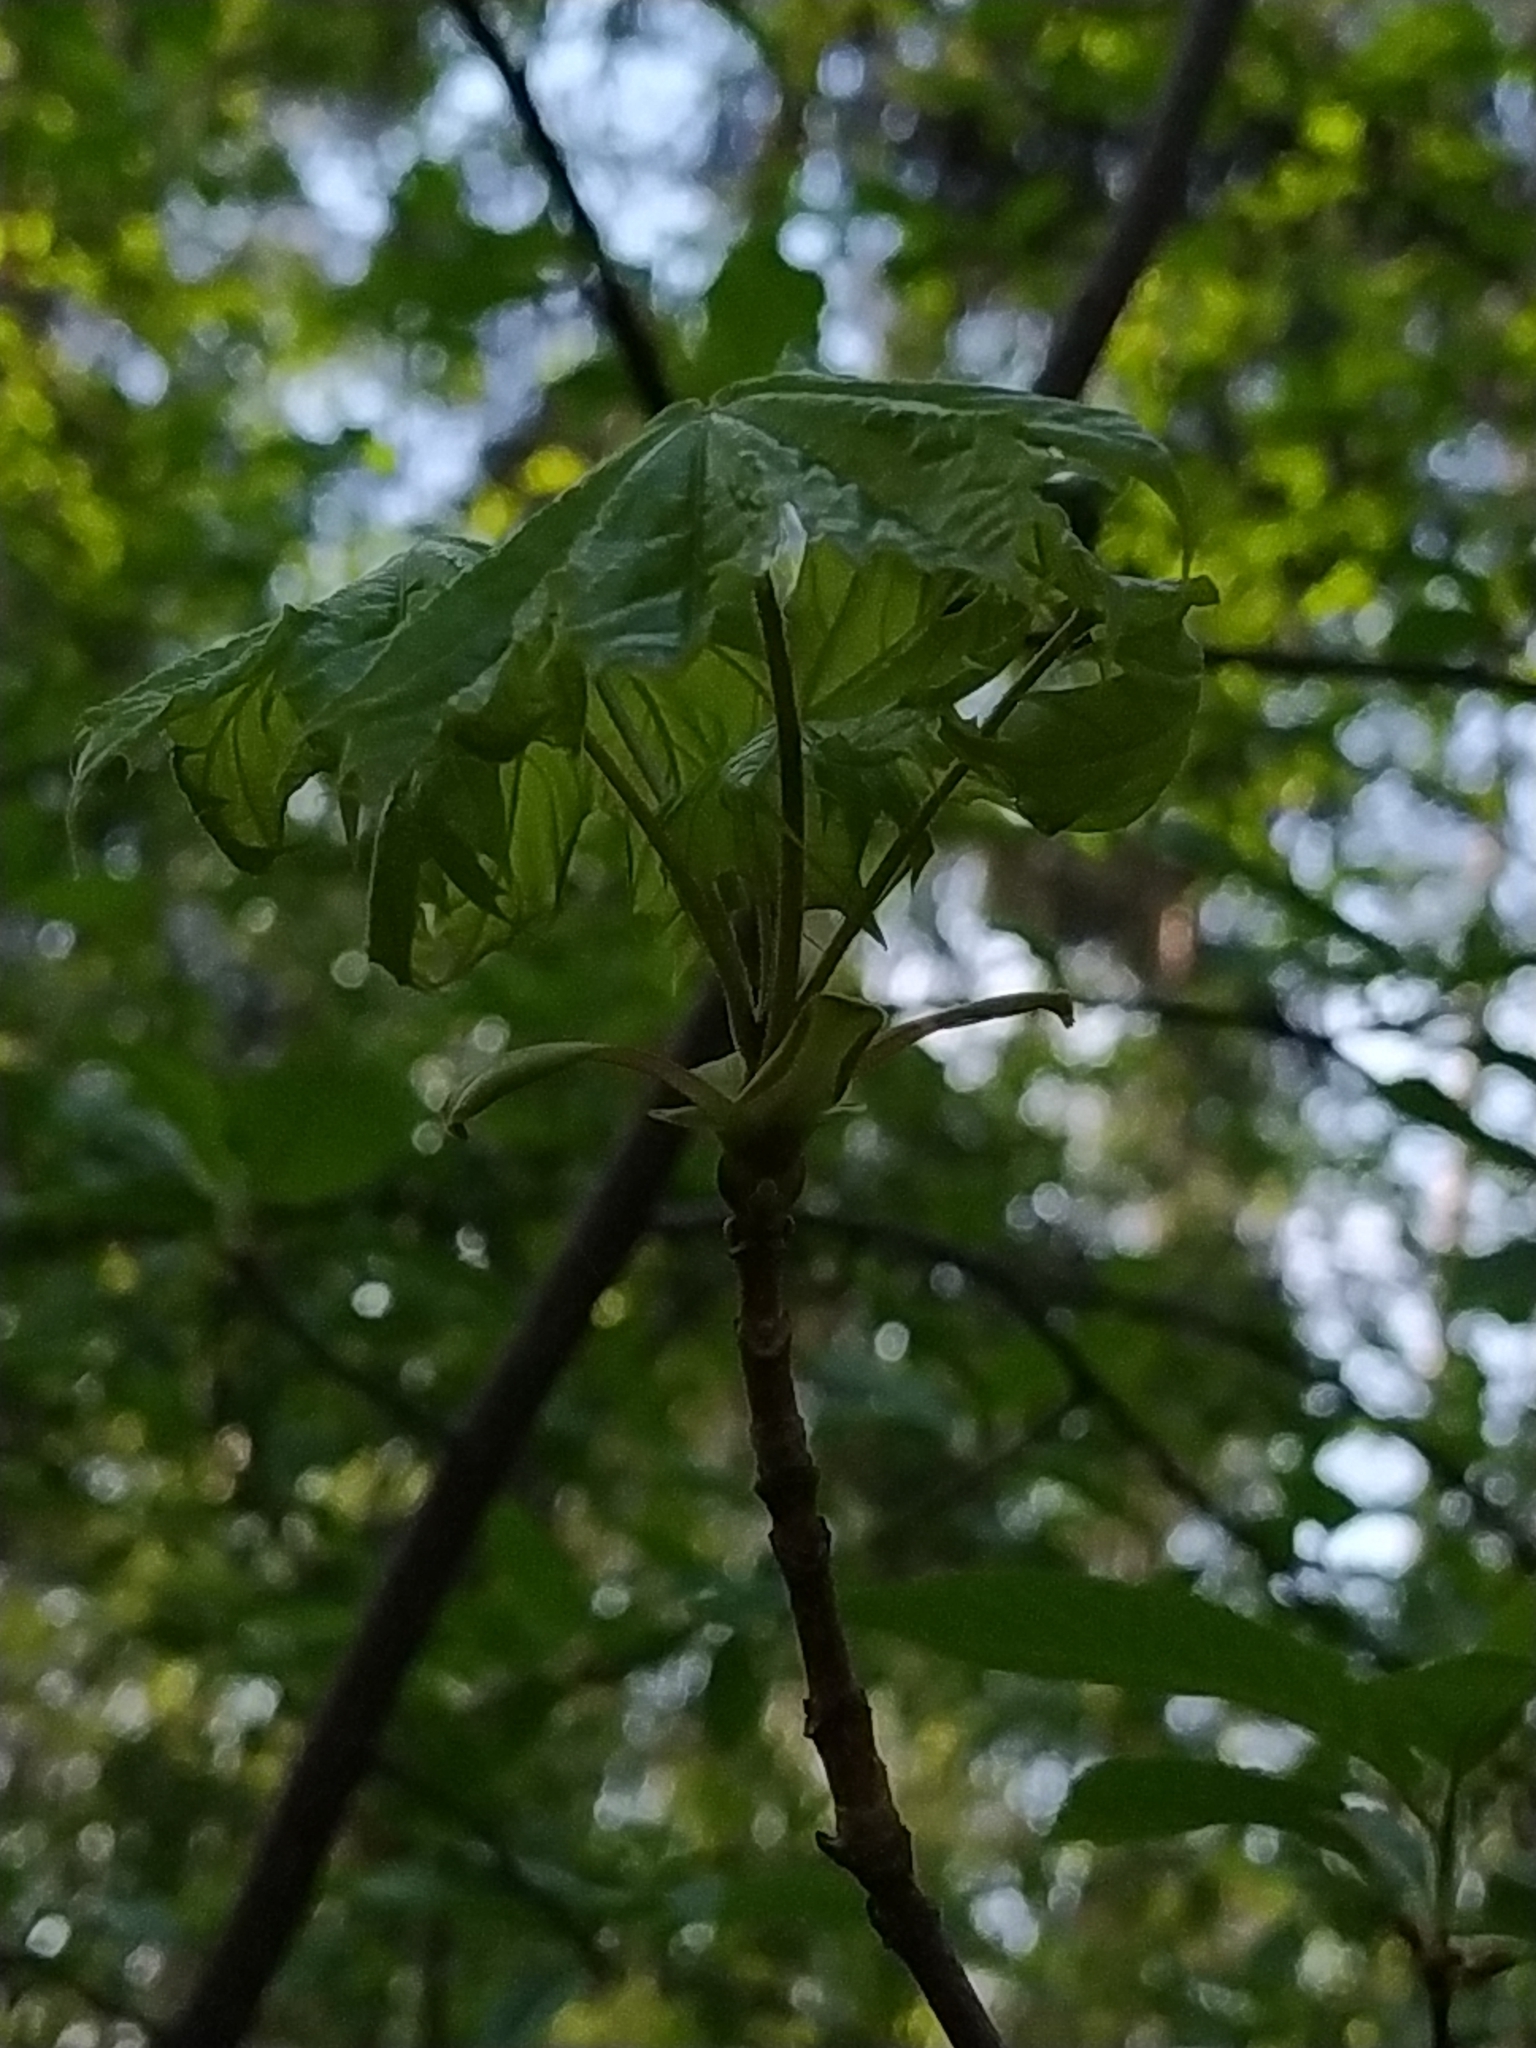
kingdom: Plantae
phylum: Tracheophyta
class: Magnoliopsida
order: Sapindales
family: Sapindaceae
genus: Acer
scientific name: Acer platanoides
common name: Norway maple
